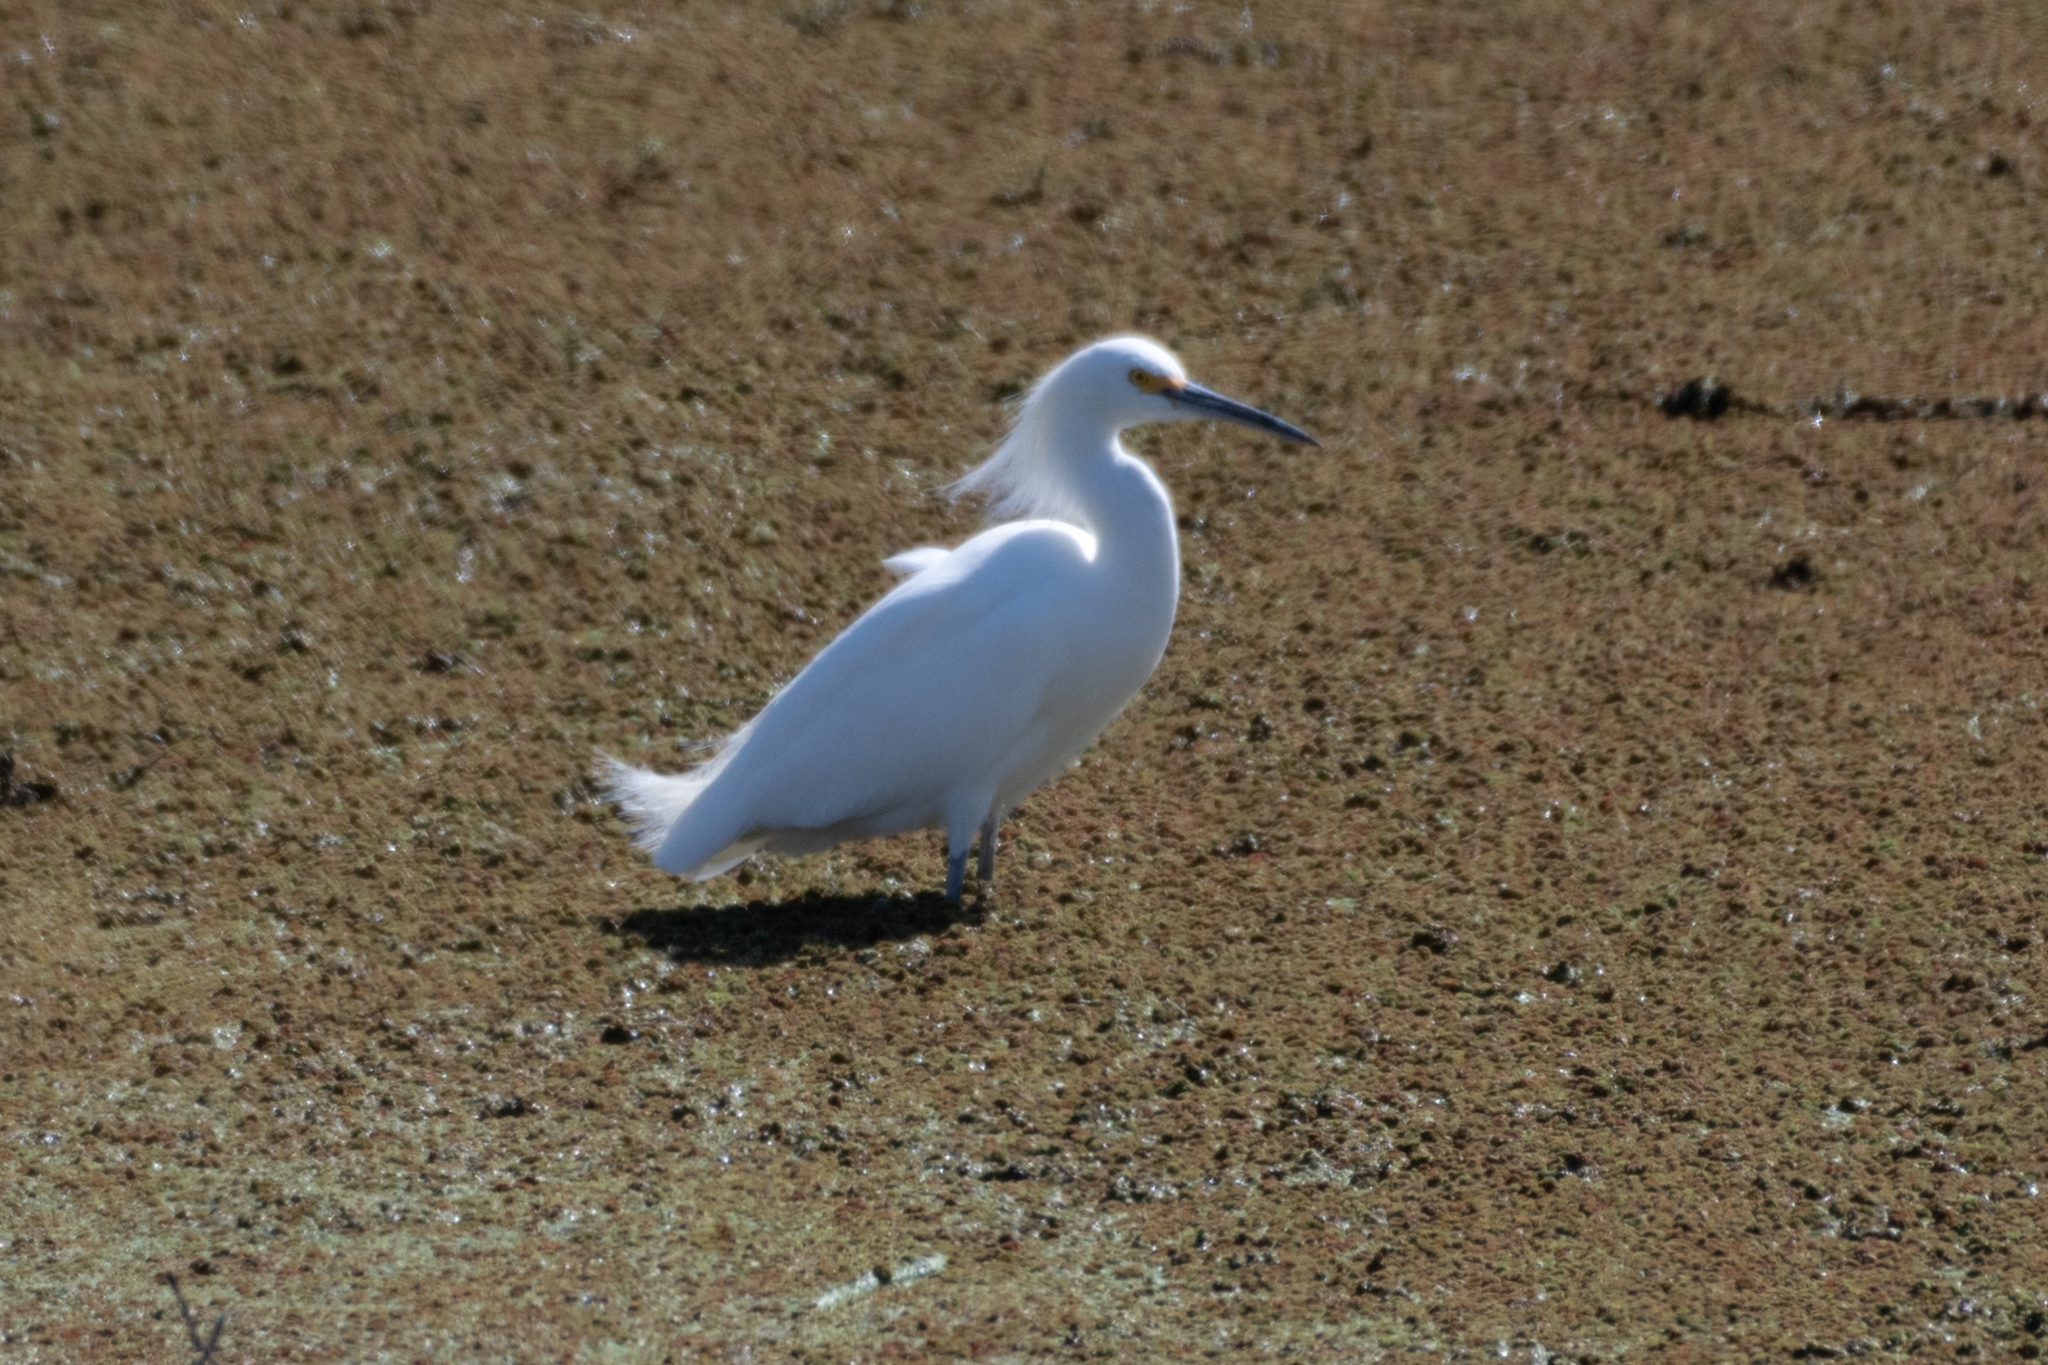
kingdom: Animalia
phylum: Chordata
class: Aves
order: Pelecaniformes
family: Ardeidae
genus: Egretta
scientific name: Egretta thula
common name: Snowy egret
